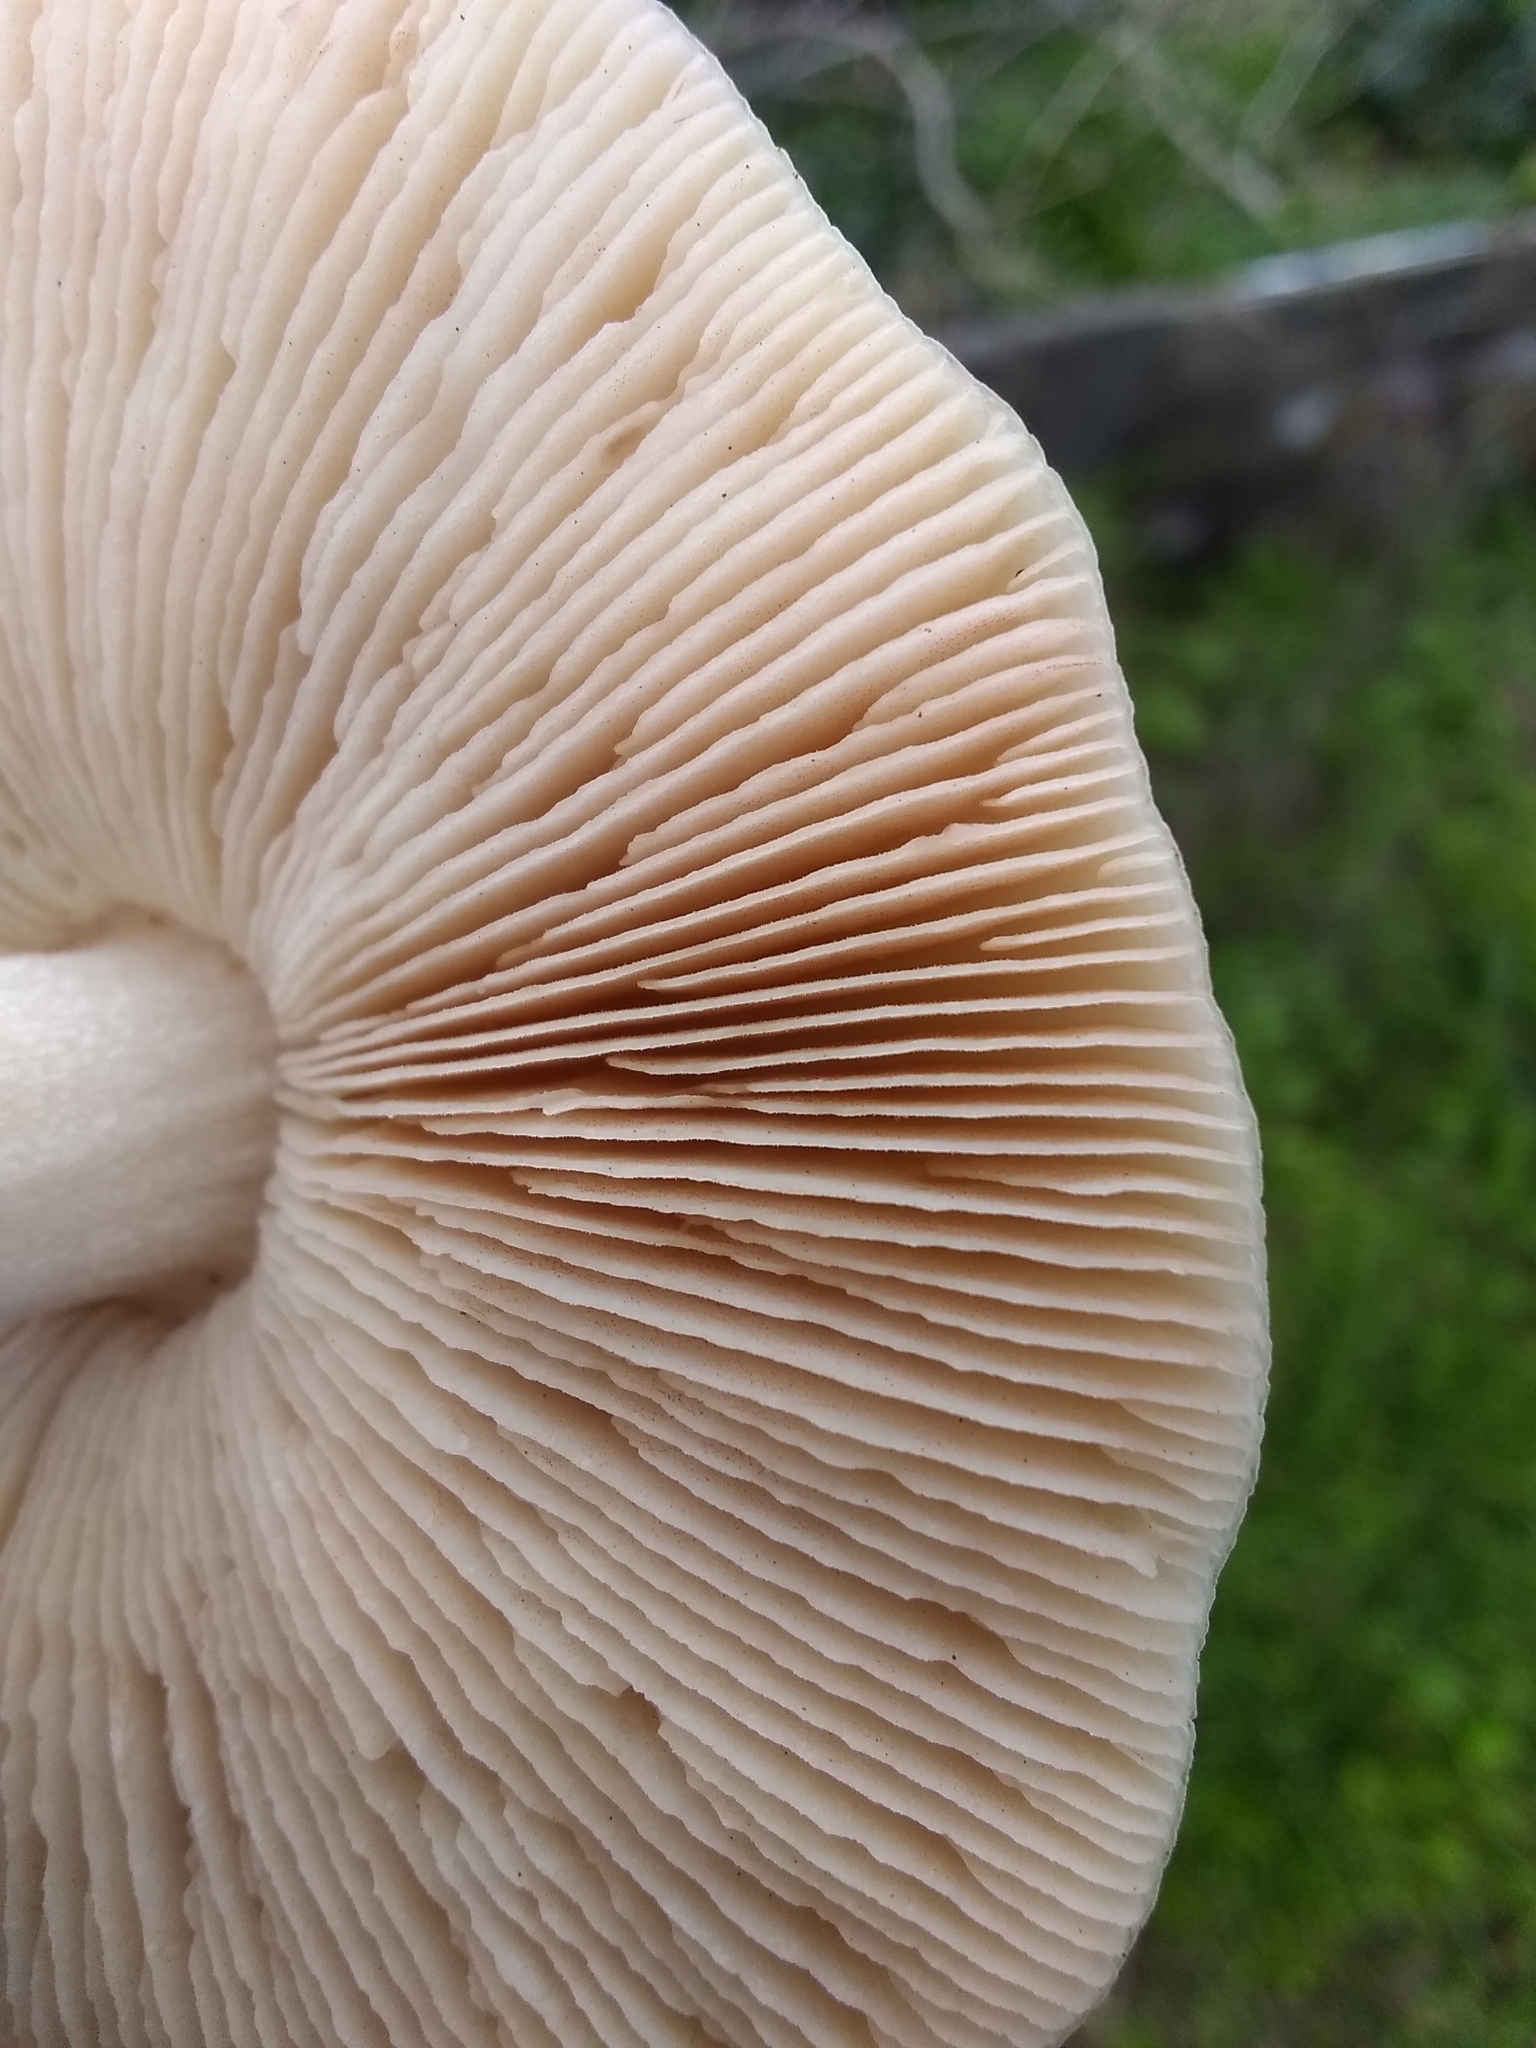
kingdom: Fungi
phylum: Basidiomycota
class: Agaricomycetes
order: Agaricales
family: Pluteaceae
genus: Volvopluteus
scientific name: Volvopluteus gloiocephalus
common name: Stubble rosegill
